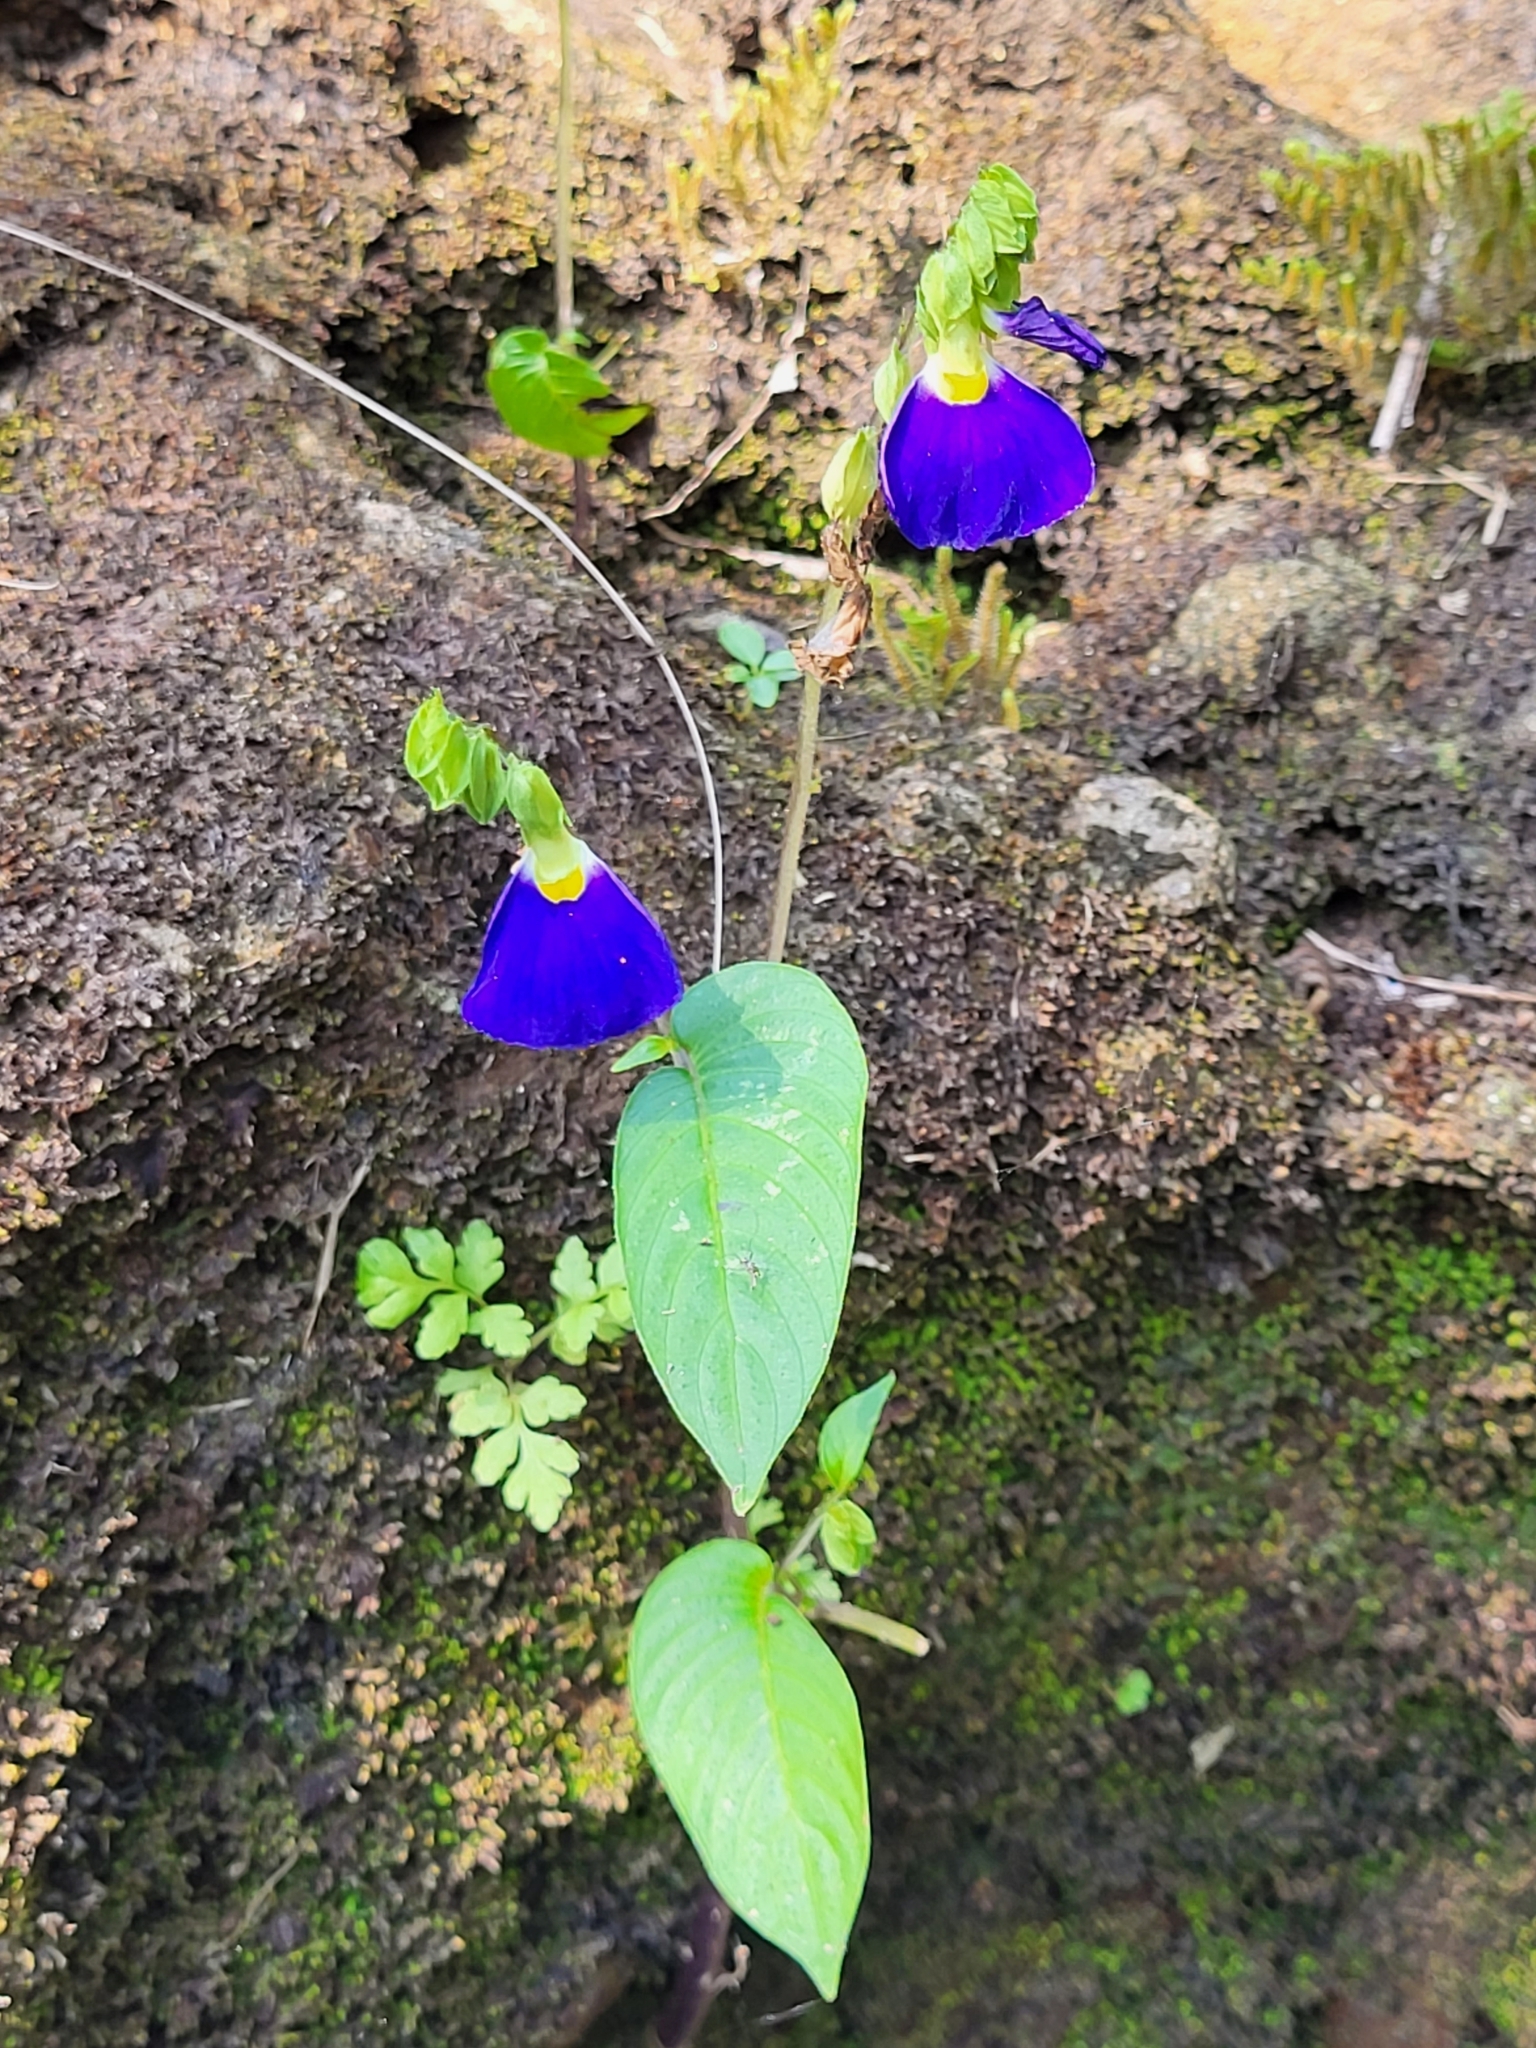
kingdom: Plantae
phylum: Tracheophyta
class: Magnoliopsida
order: Lamiales
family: Gesneriaceae
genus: Rhynchoglossum
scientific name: Rhynchoglossum notonianum
